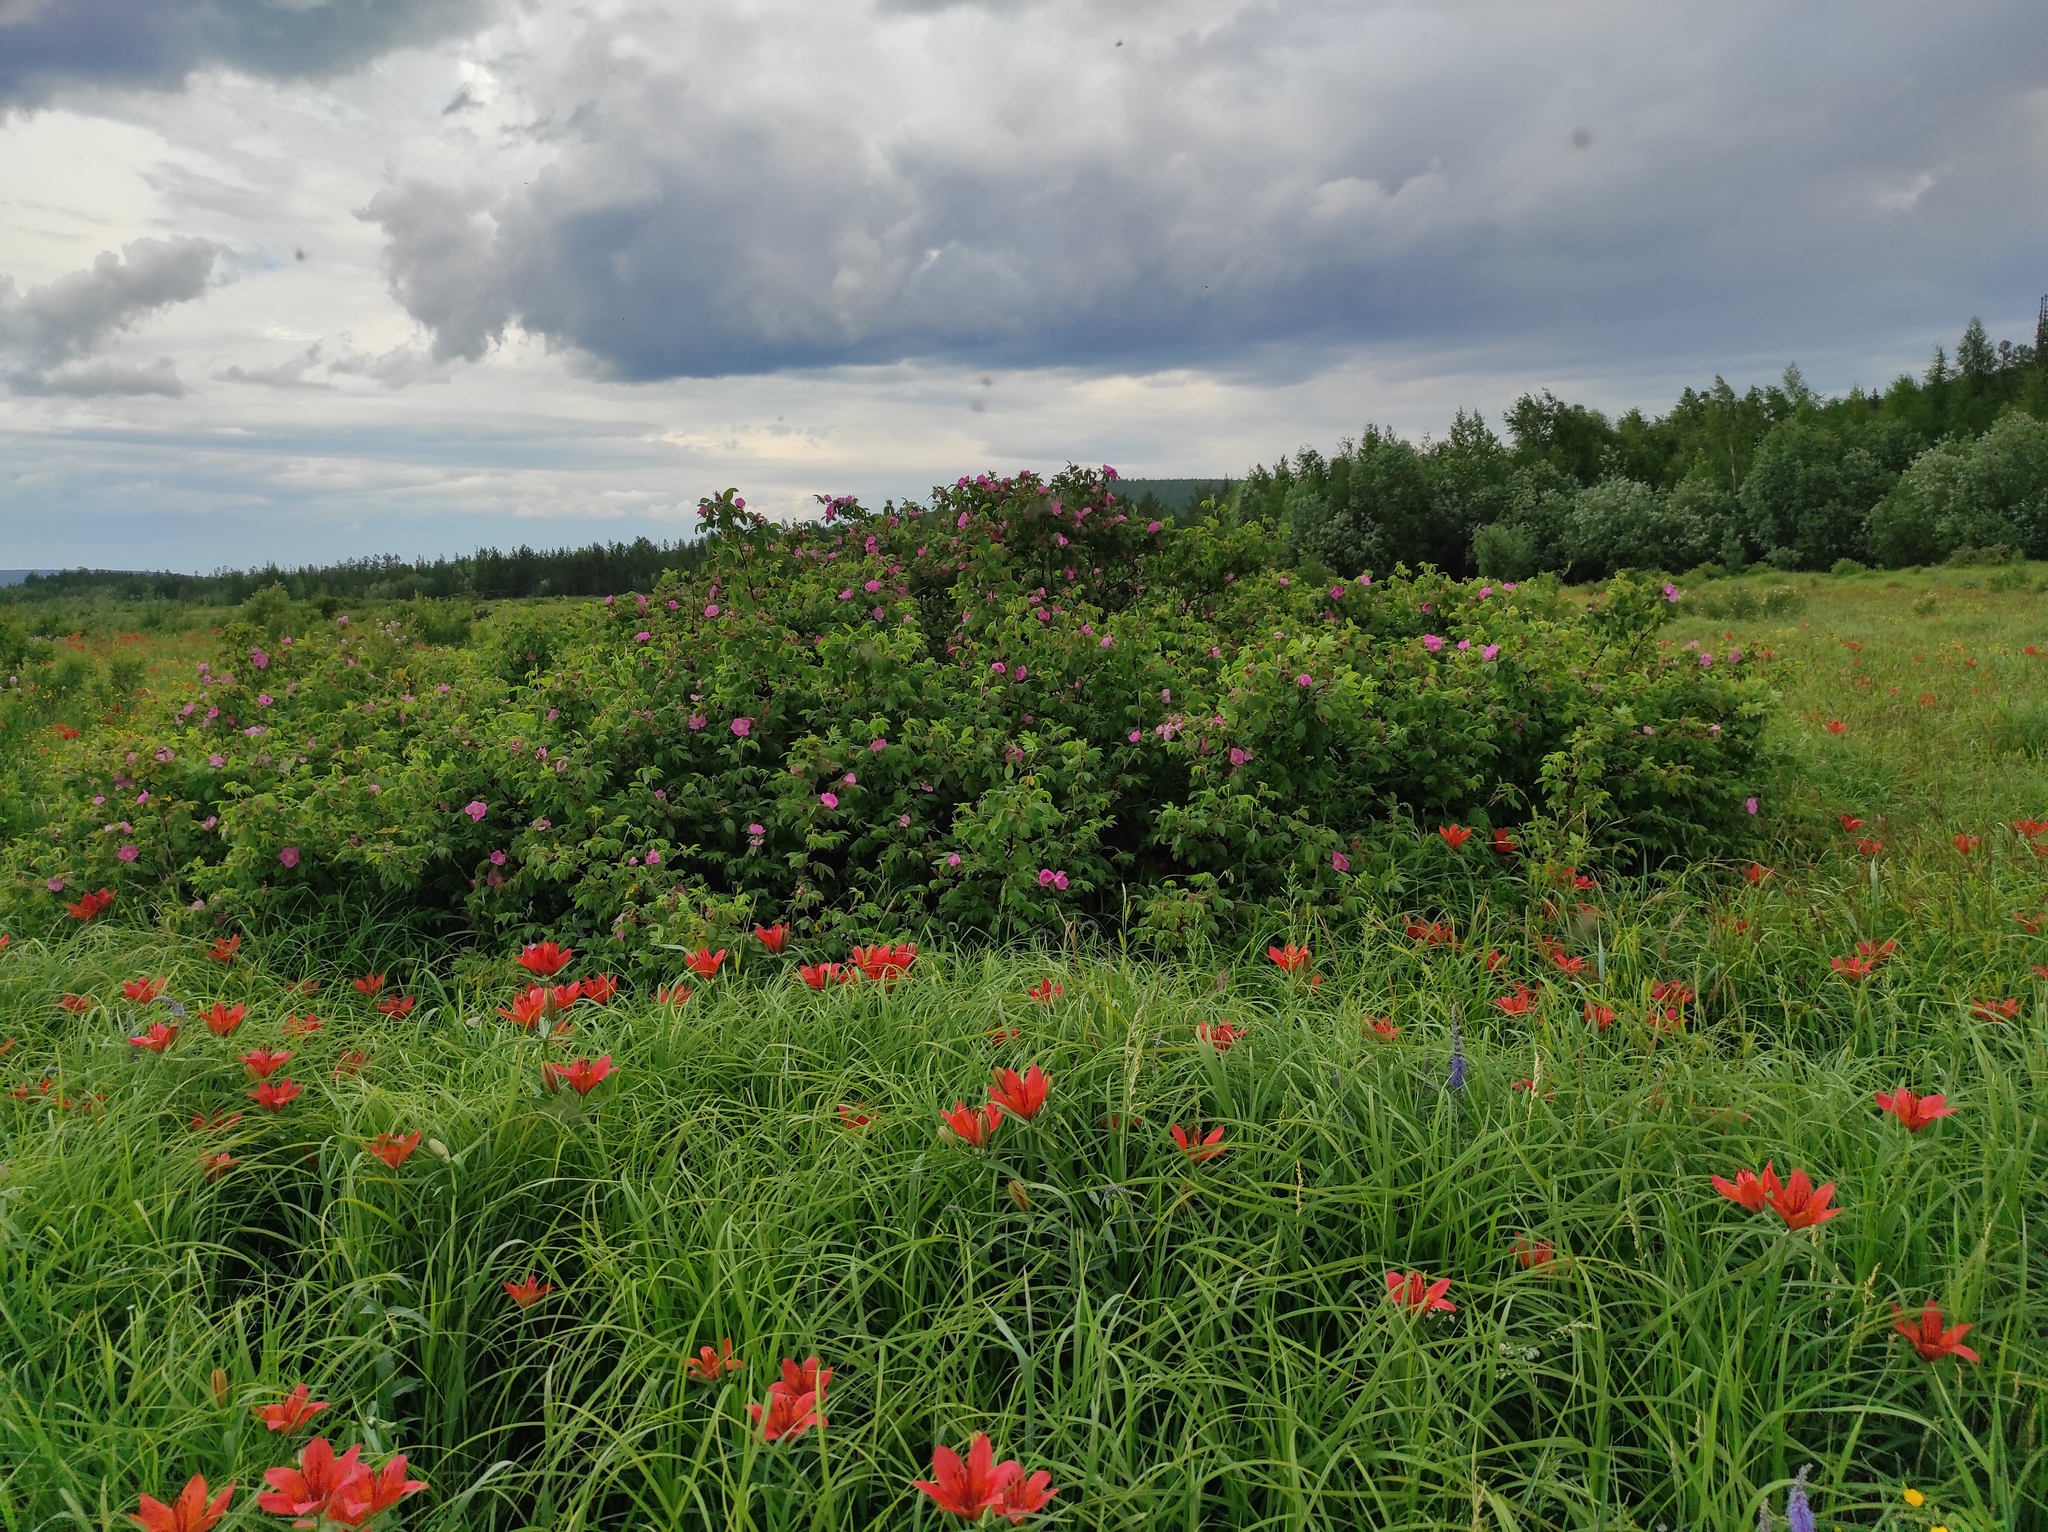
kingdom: Plantae
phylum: Tracheophyta
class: Magnoliopsida
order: Lamiales
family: Plantaginaceae
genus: Plantago
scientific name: Plantago media
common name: Hoary plantain
